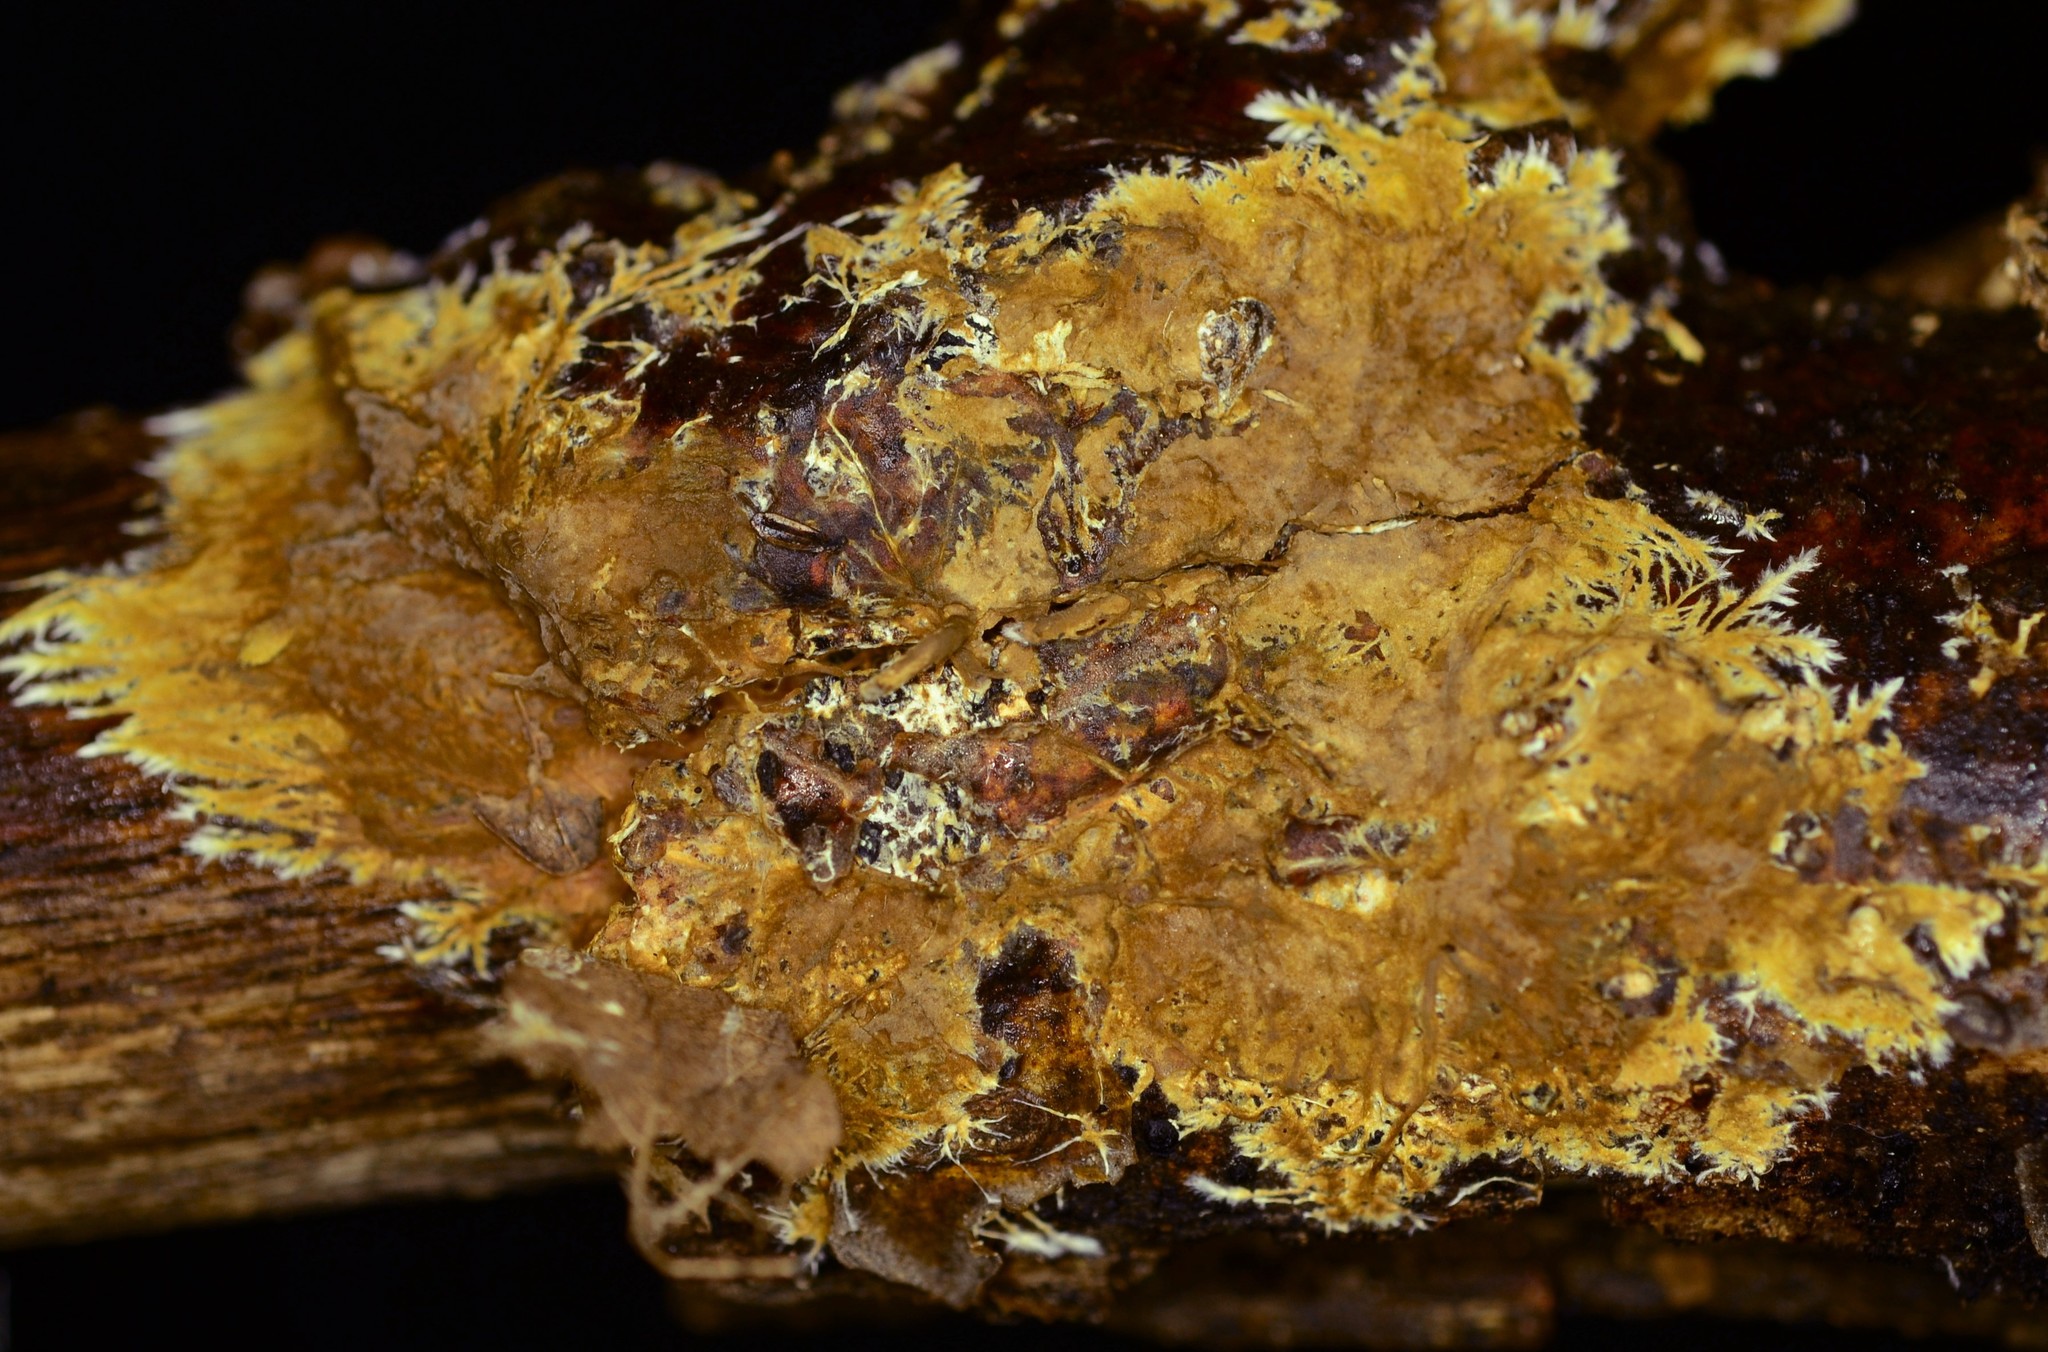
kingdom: Fungi
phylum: Basidiomycota
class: Agaricomycetes
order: Russulales
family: Xenasmataceae
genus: Xenasmatella
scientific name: Xenasmatella vaga
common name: Yellow cobweb
